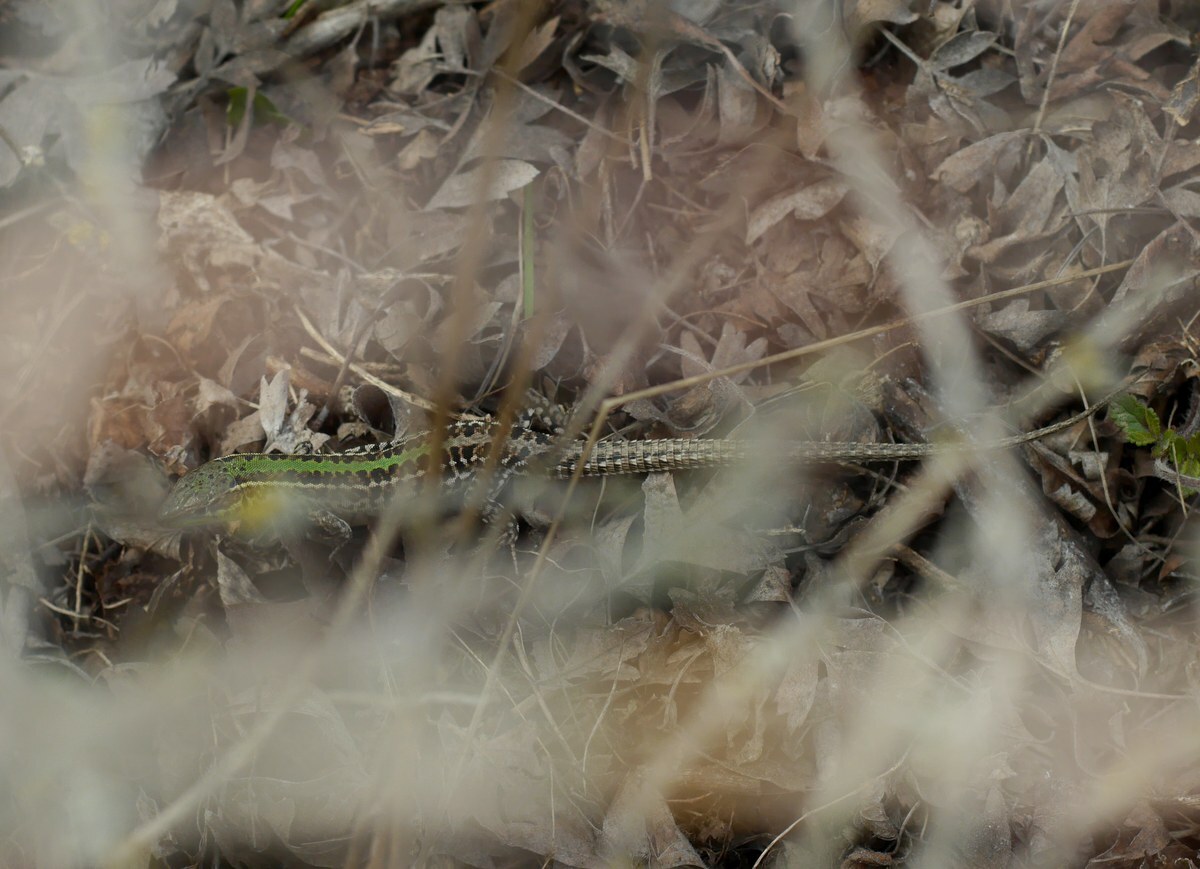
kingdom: Animalia
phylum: Chordata
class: Squamata
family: Lacertidae
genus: Podarcis
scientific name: Podarcis tauricus
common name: Balkan wall lizard
